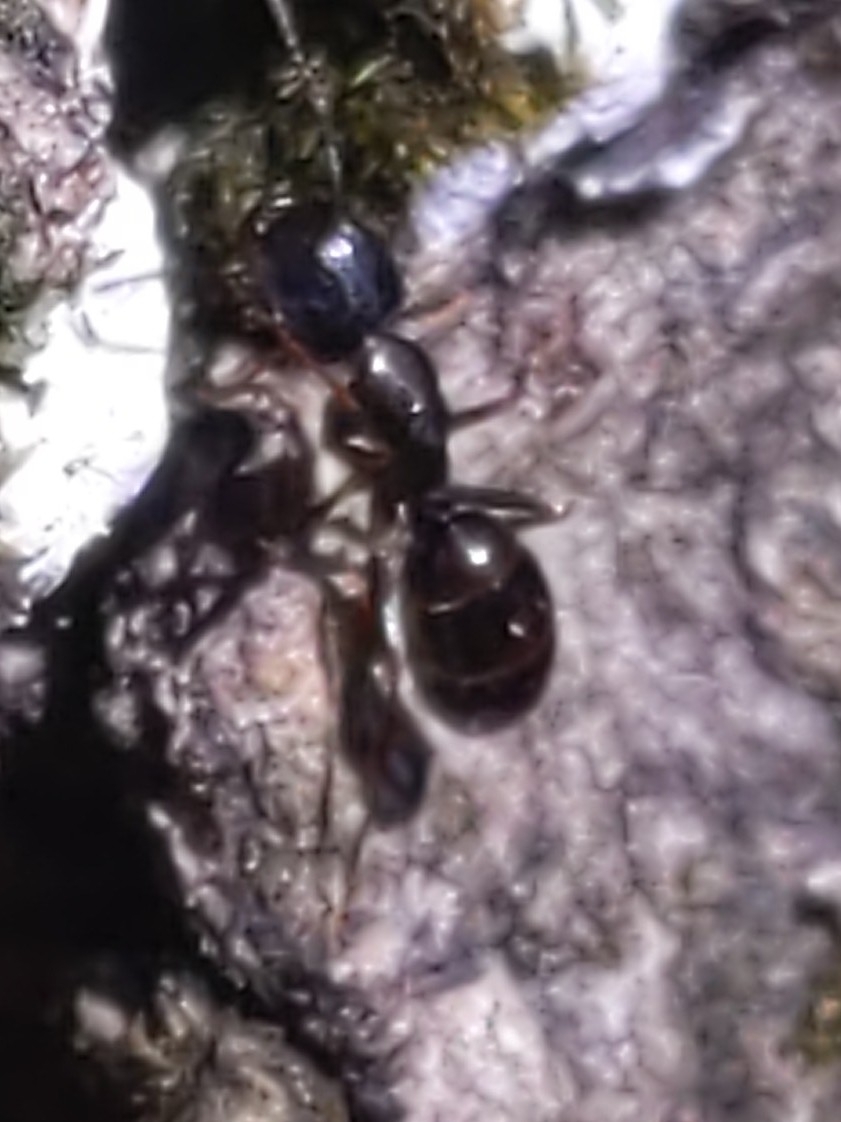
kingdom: Animalia
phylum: Arthropoda
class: Insecta
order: Hymenoptera
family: Formicidae
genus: Myrmentoma
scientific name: Myrmentoma
